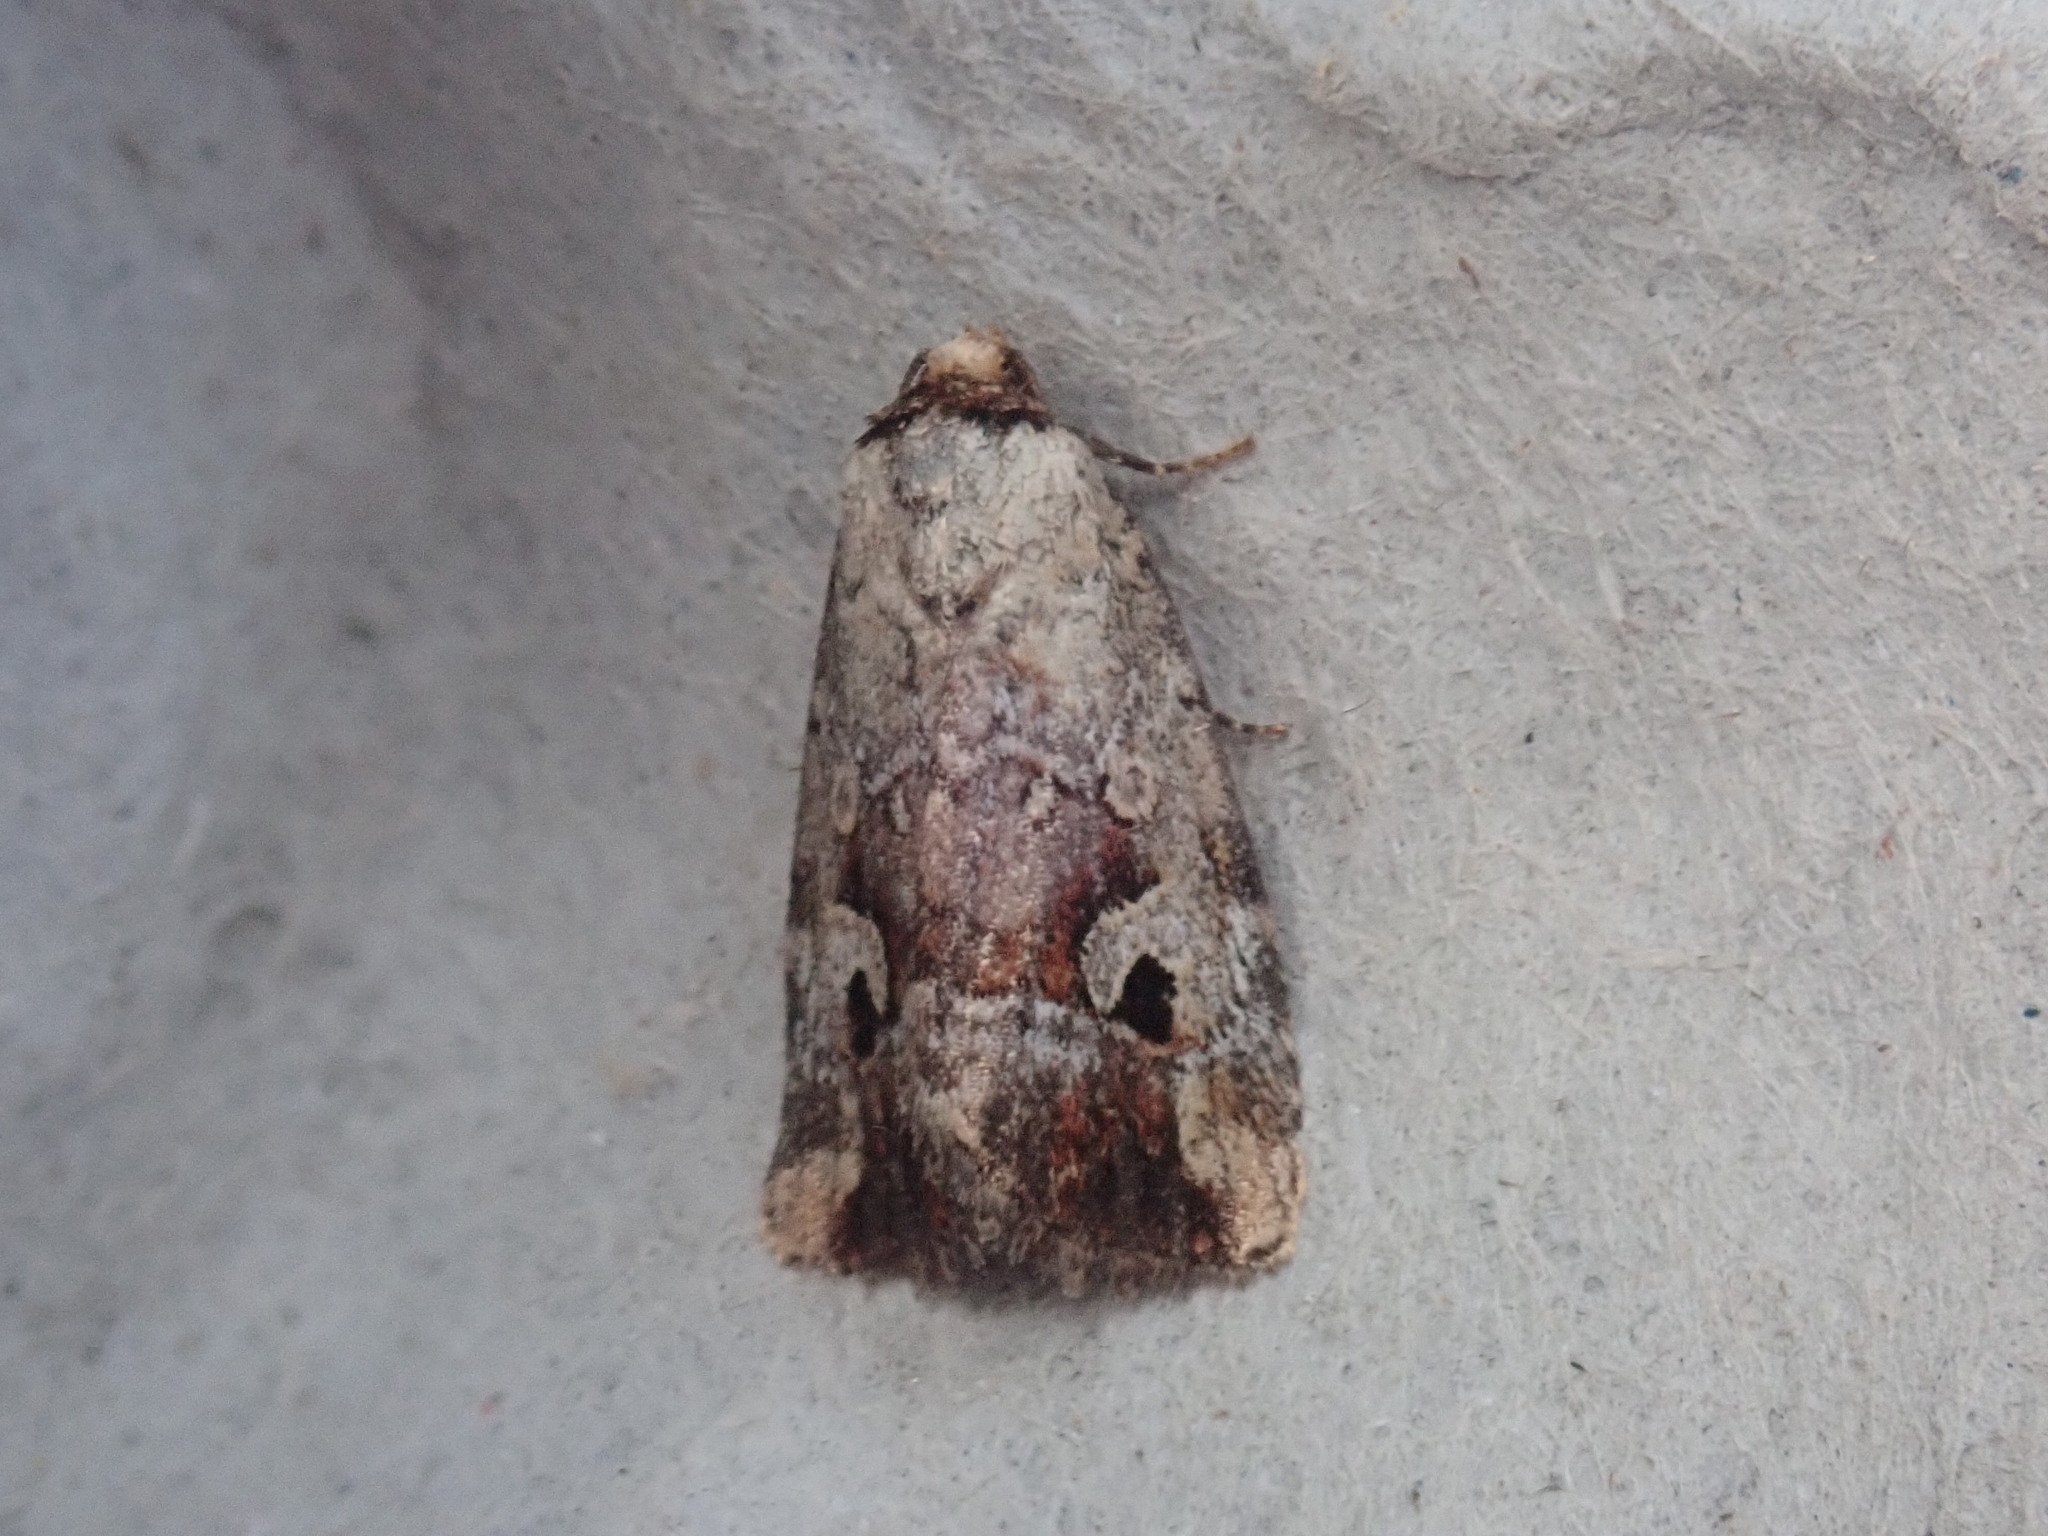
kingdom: Animalia
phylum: Arthropoda
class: Insecta
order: Lepidoptera
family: Noctuidae
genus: Elaphria
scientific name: Elaphria alapallida
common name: Pale-winged midget
